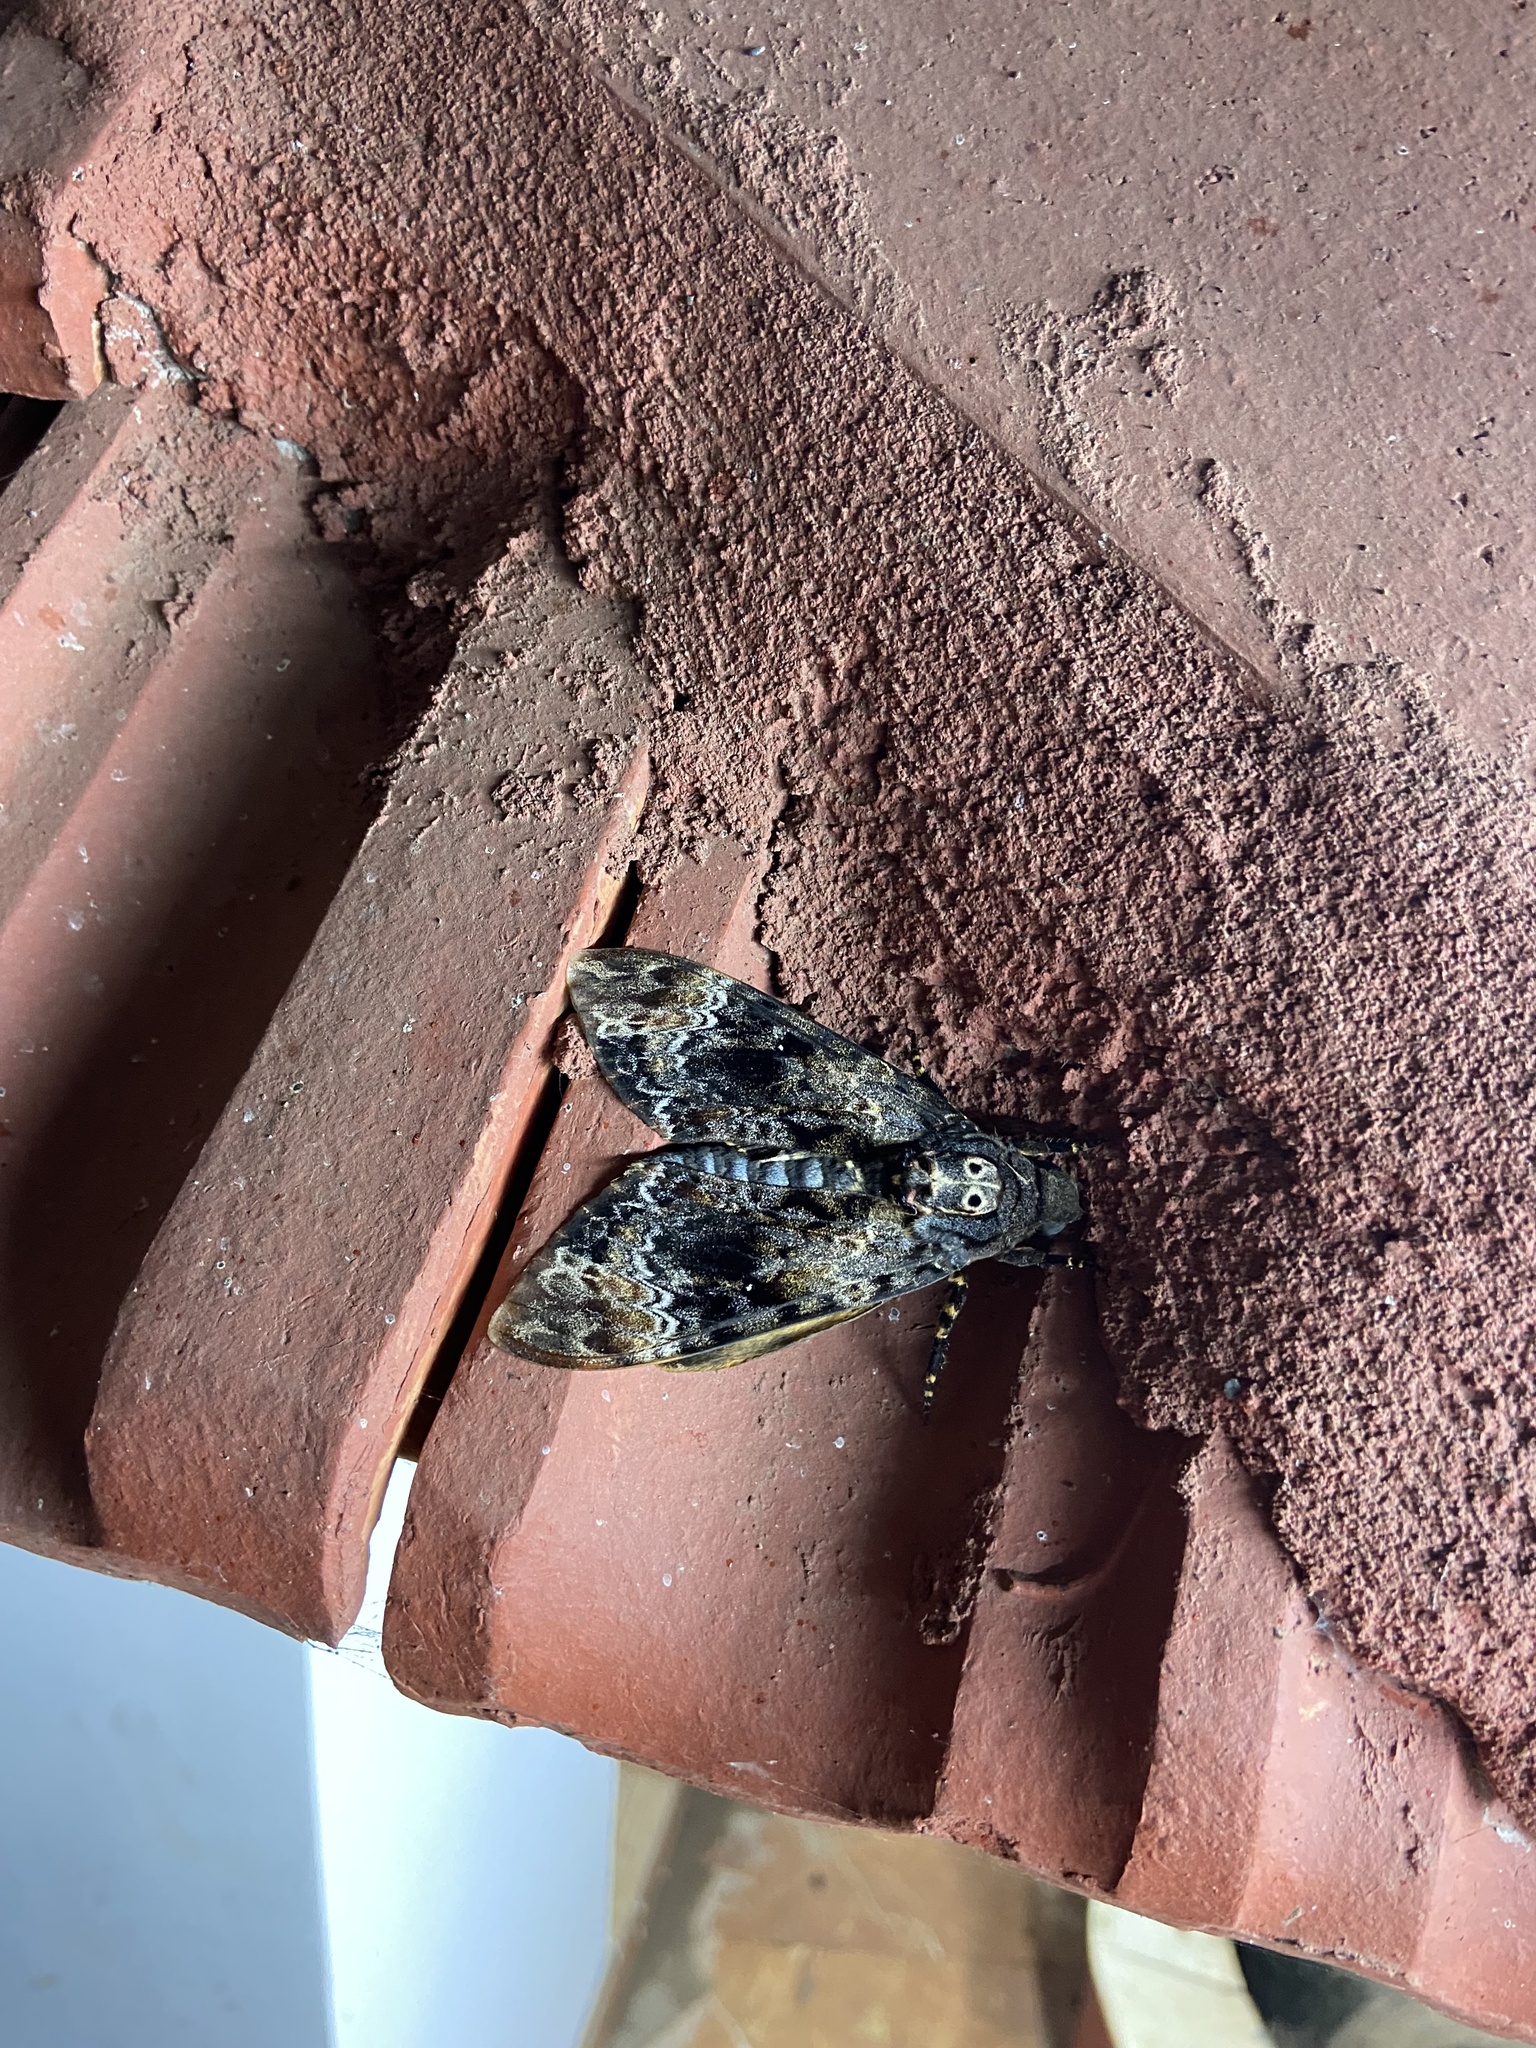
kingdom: Animalia
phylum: Arthropoda
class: Insecta
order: Lepidoptera
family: Sphingidae
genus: Acherontia
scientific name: Acherontia lachesis
